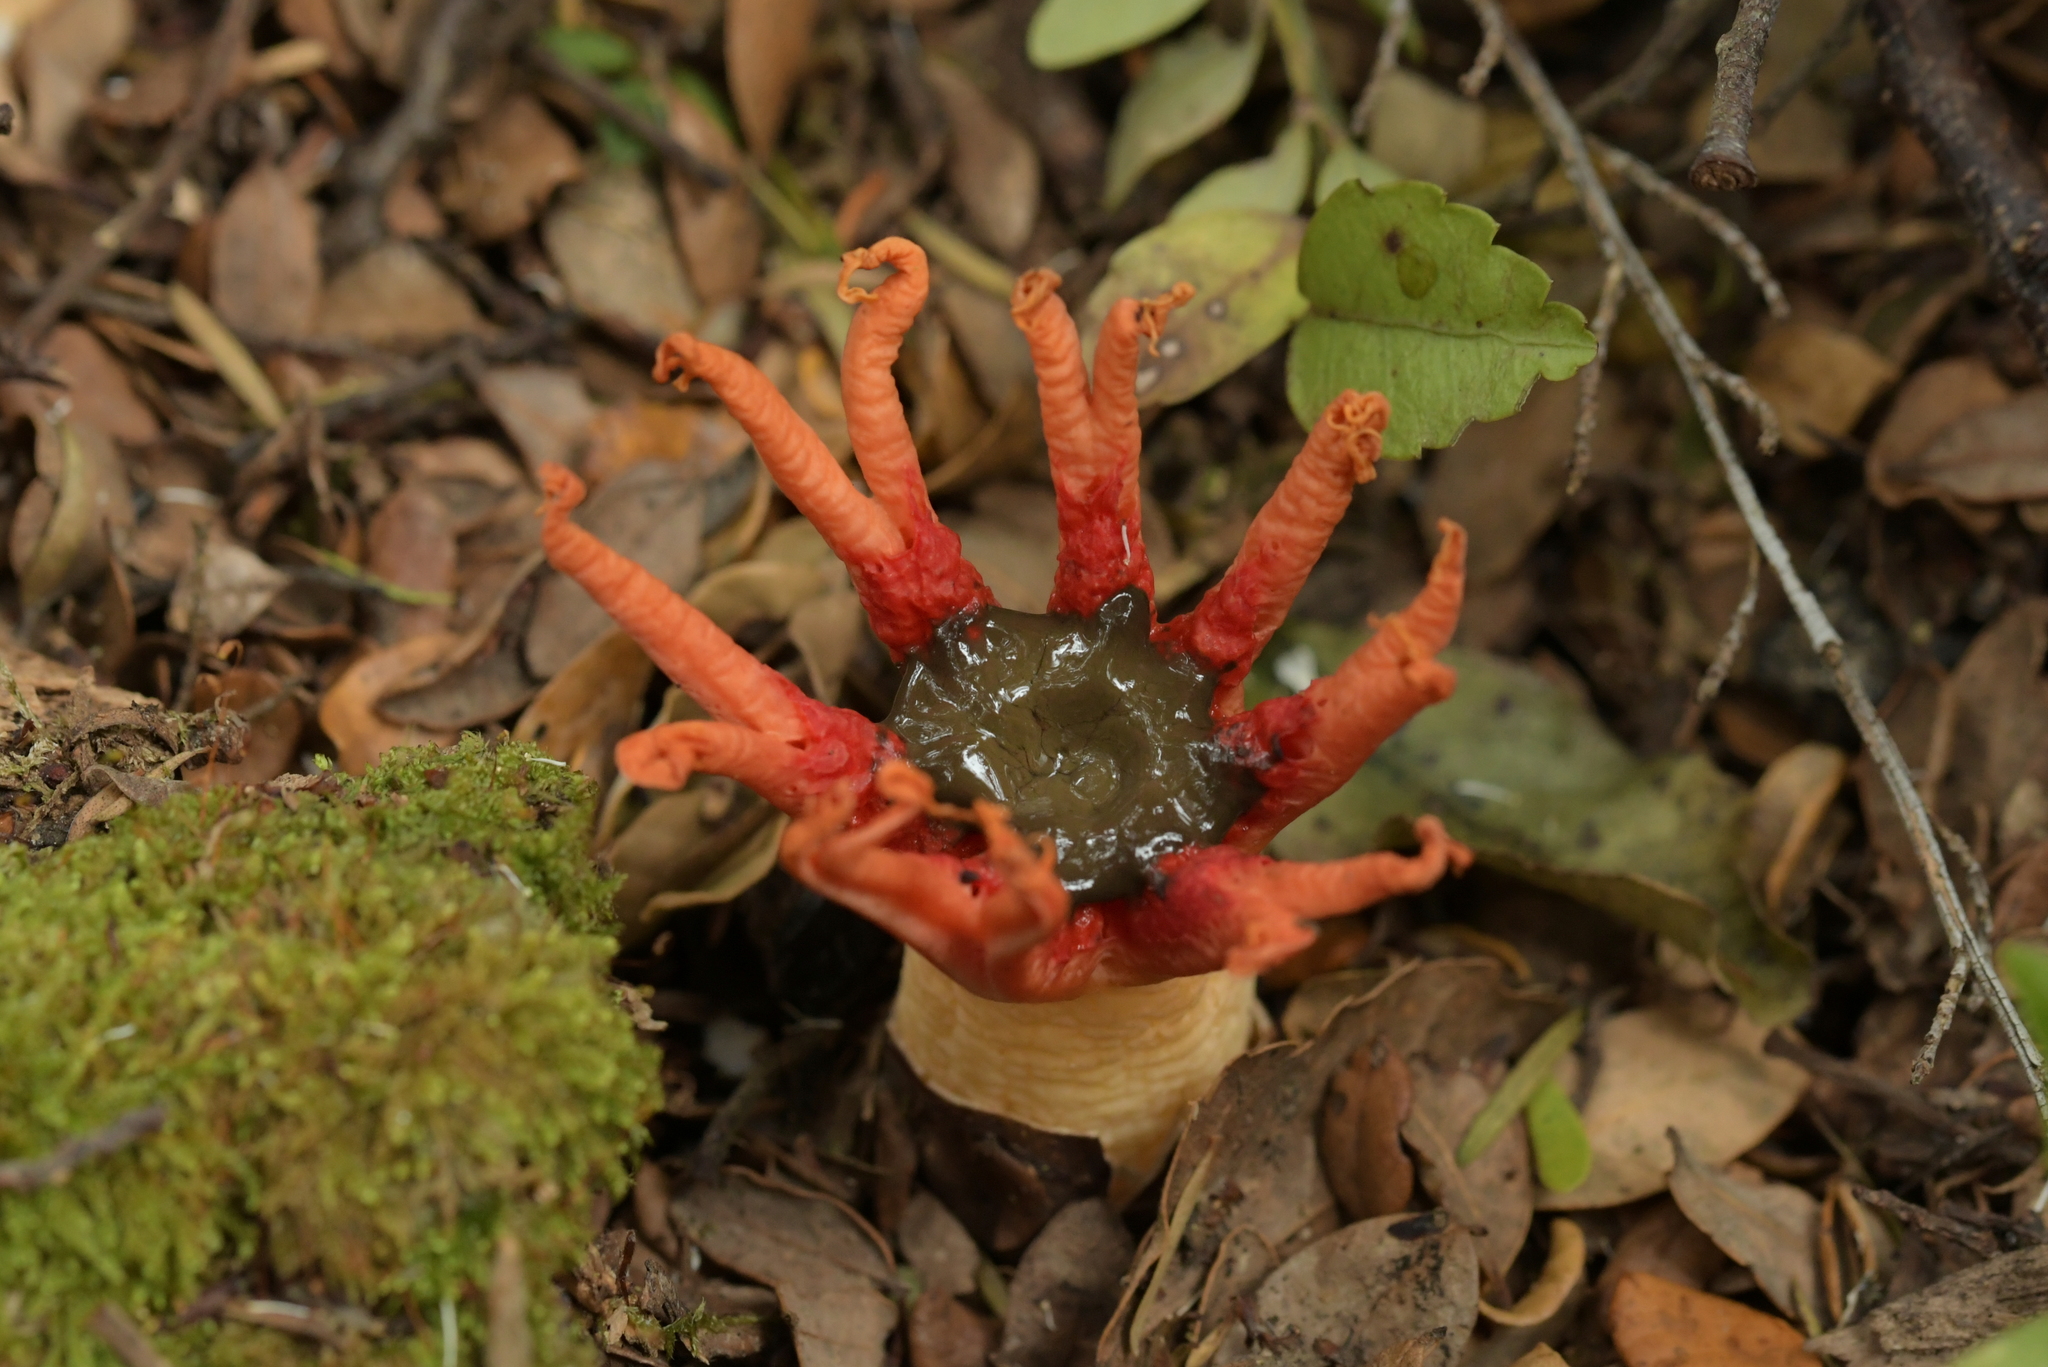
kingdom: Fungi
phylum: Basidiomycota
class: Agaricomycetes
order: Phallales
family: Phallaceae
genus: Aseroe
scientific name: Aseroe rubra
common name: Starfish fungus
